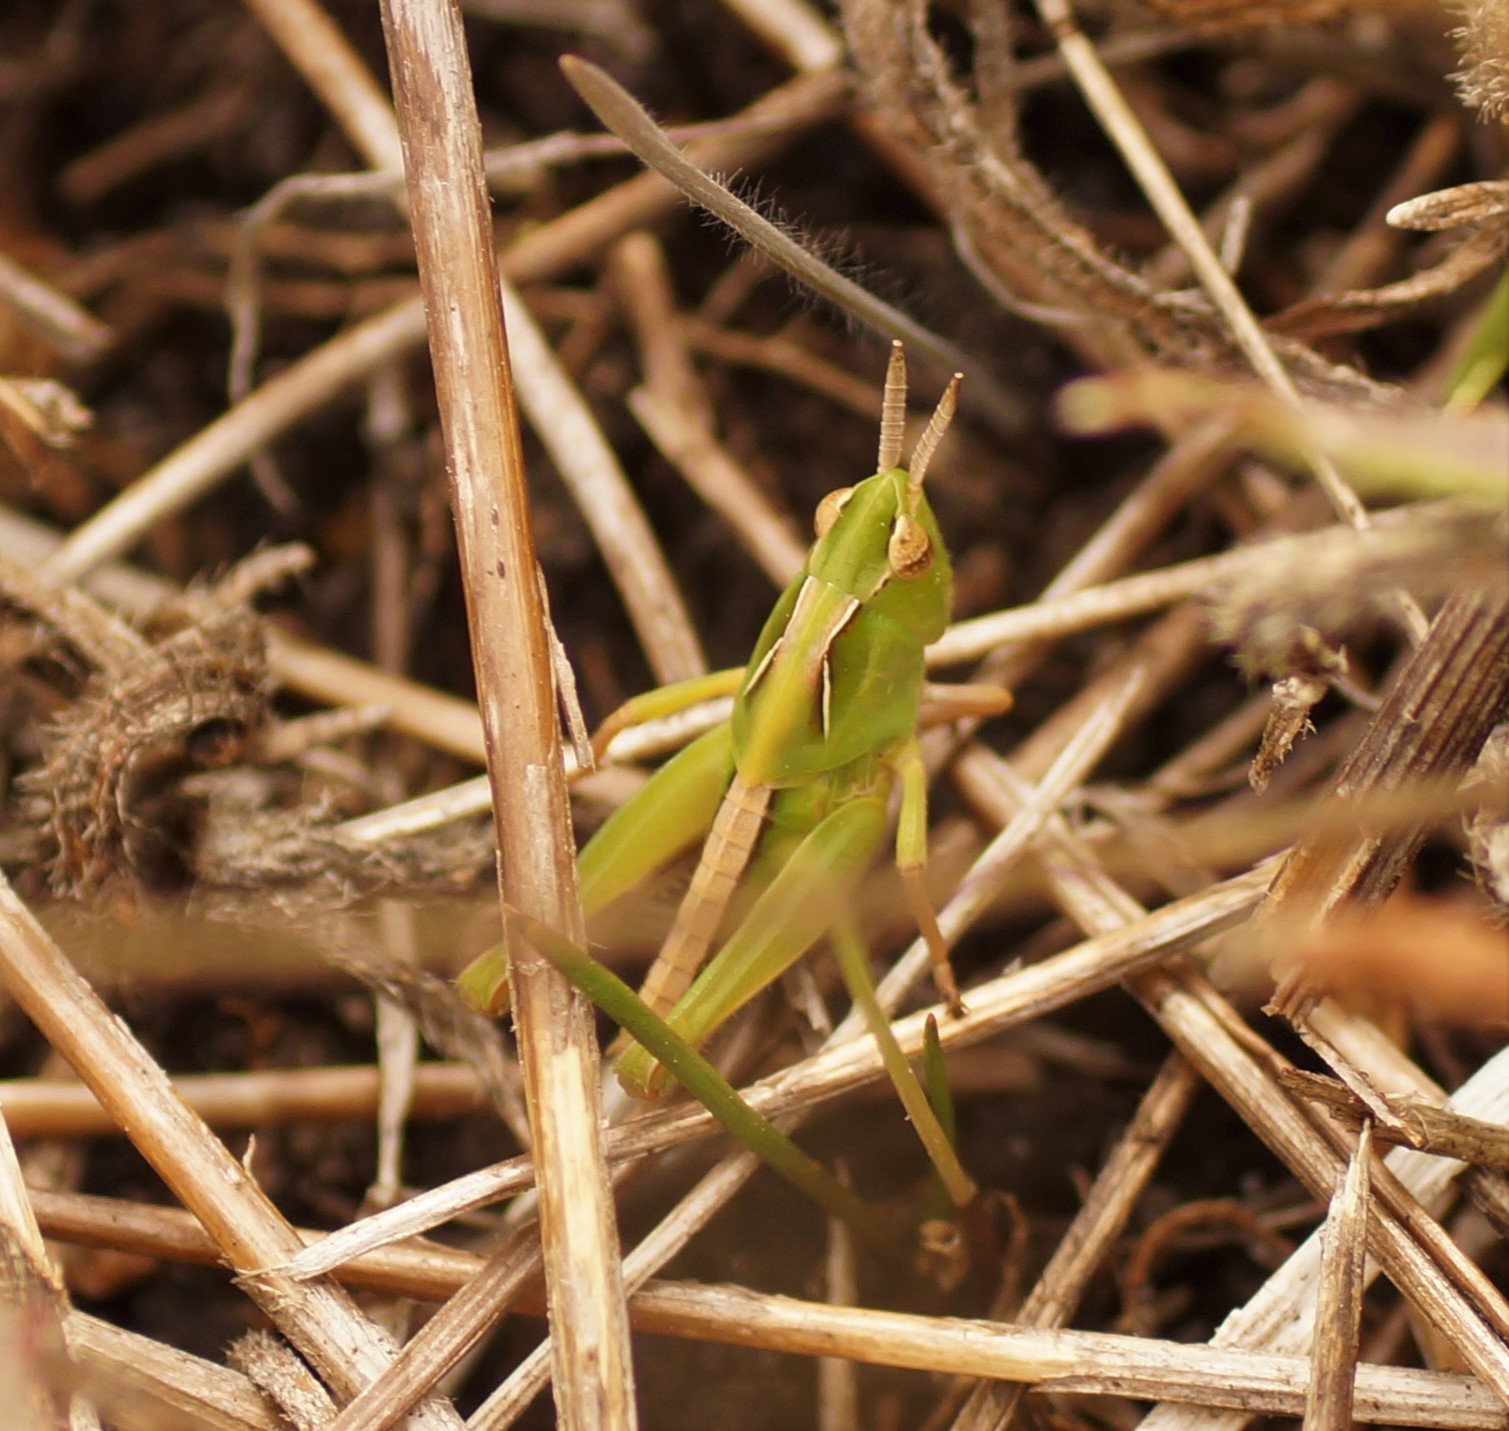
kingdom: Animalia
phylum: Arthropoda
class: Insecta
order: Orthoptera
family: Acrididae
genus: Chortoicetes
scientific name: Chortoicetes terminifera
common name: Australian plague locust
